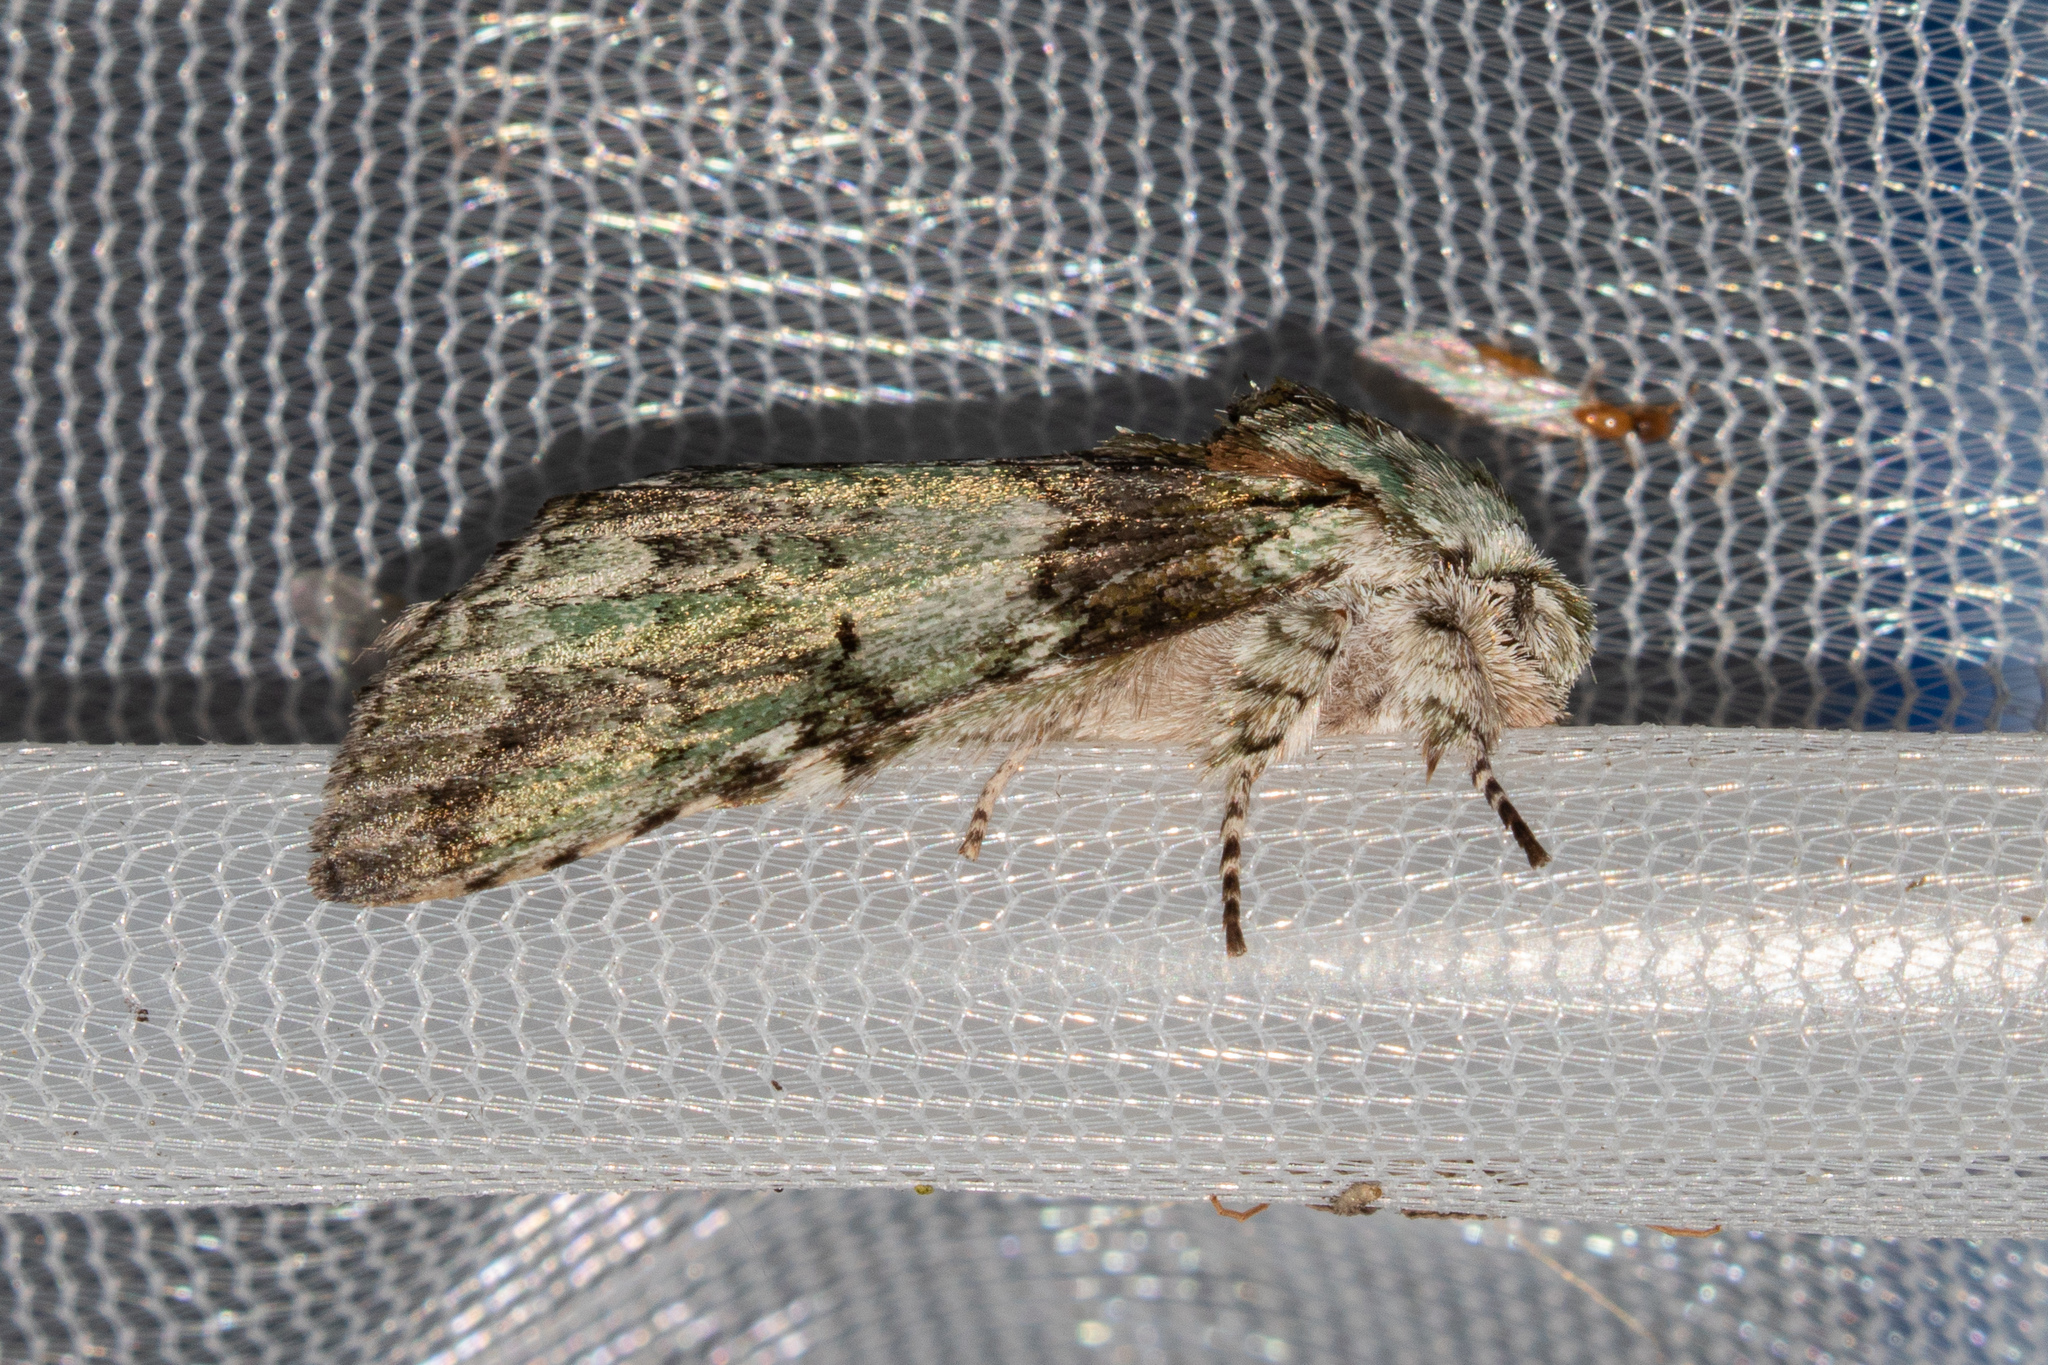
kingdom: Animalia
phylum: Arthropoda
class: Insecta
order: Lepidoptera
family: Notodontidae
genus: Macrurocampa
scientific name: Macrurocampa marthesia
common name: Mottled prominent
